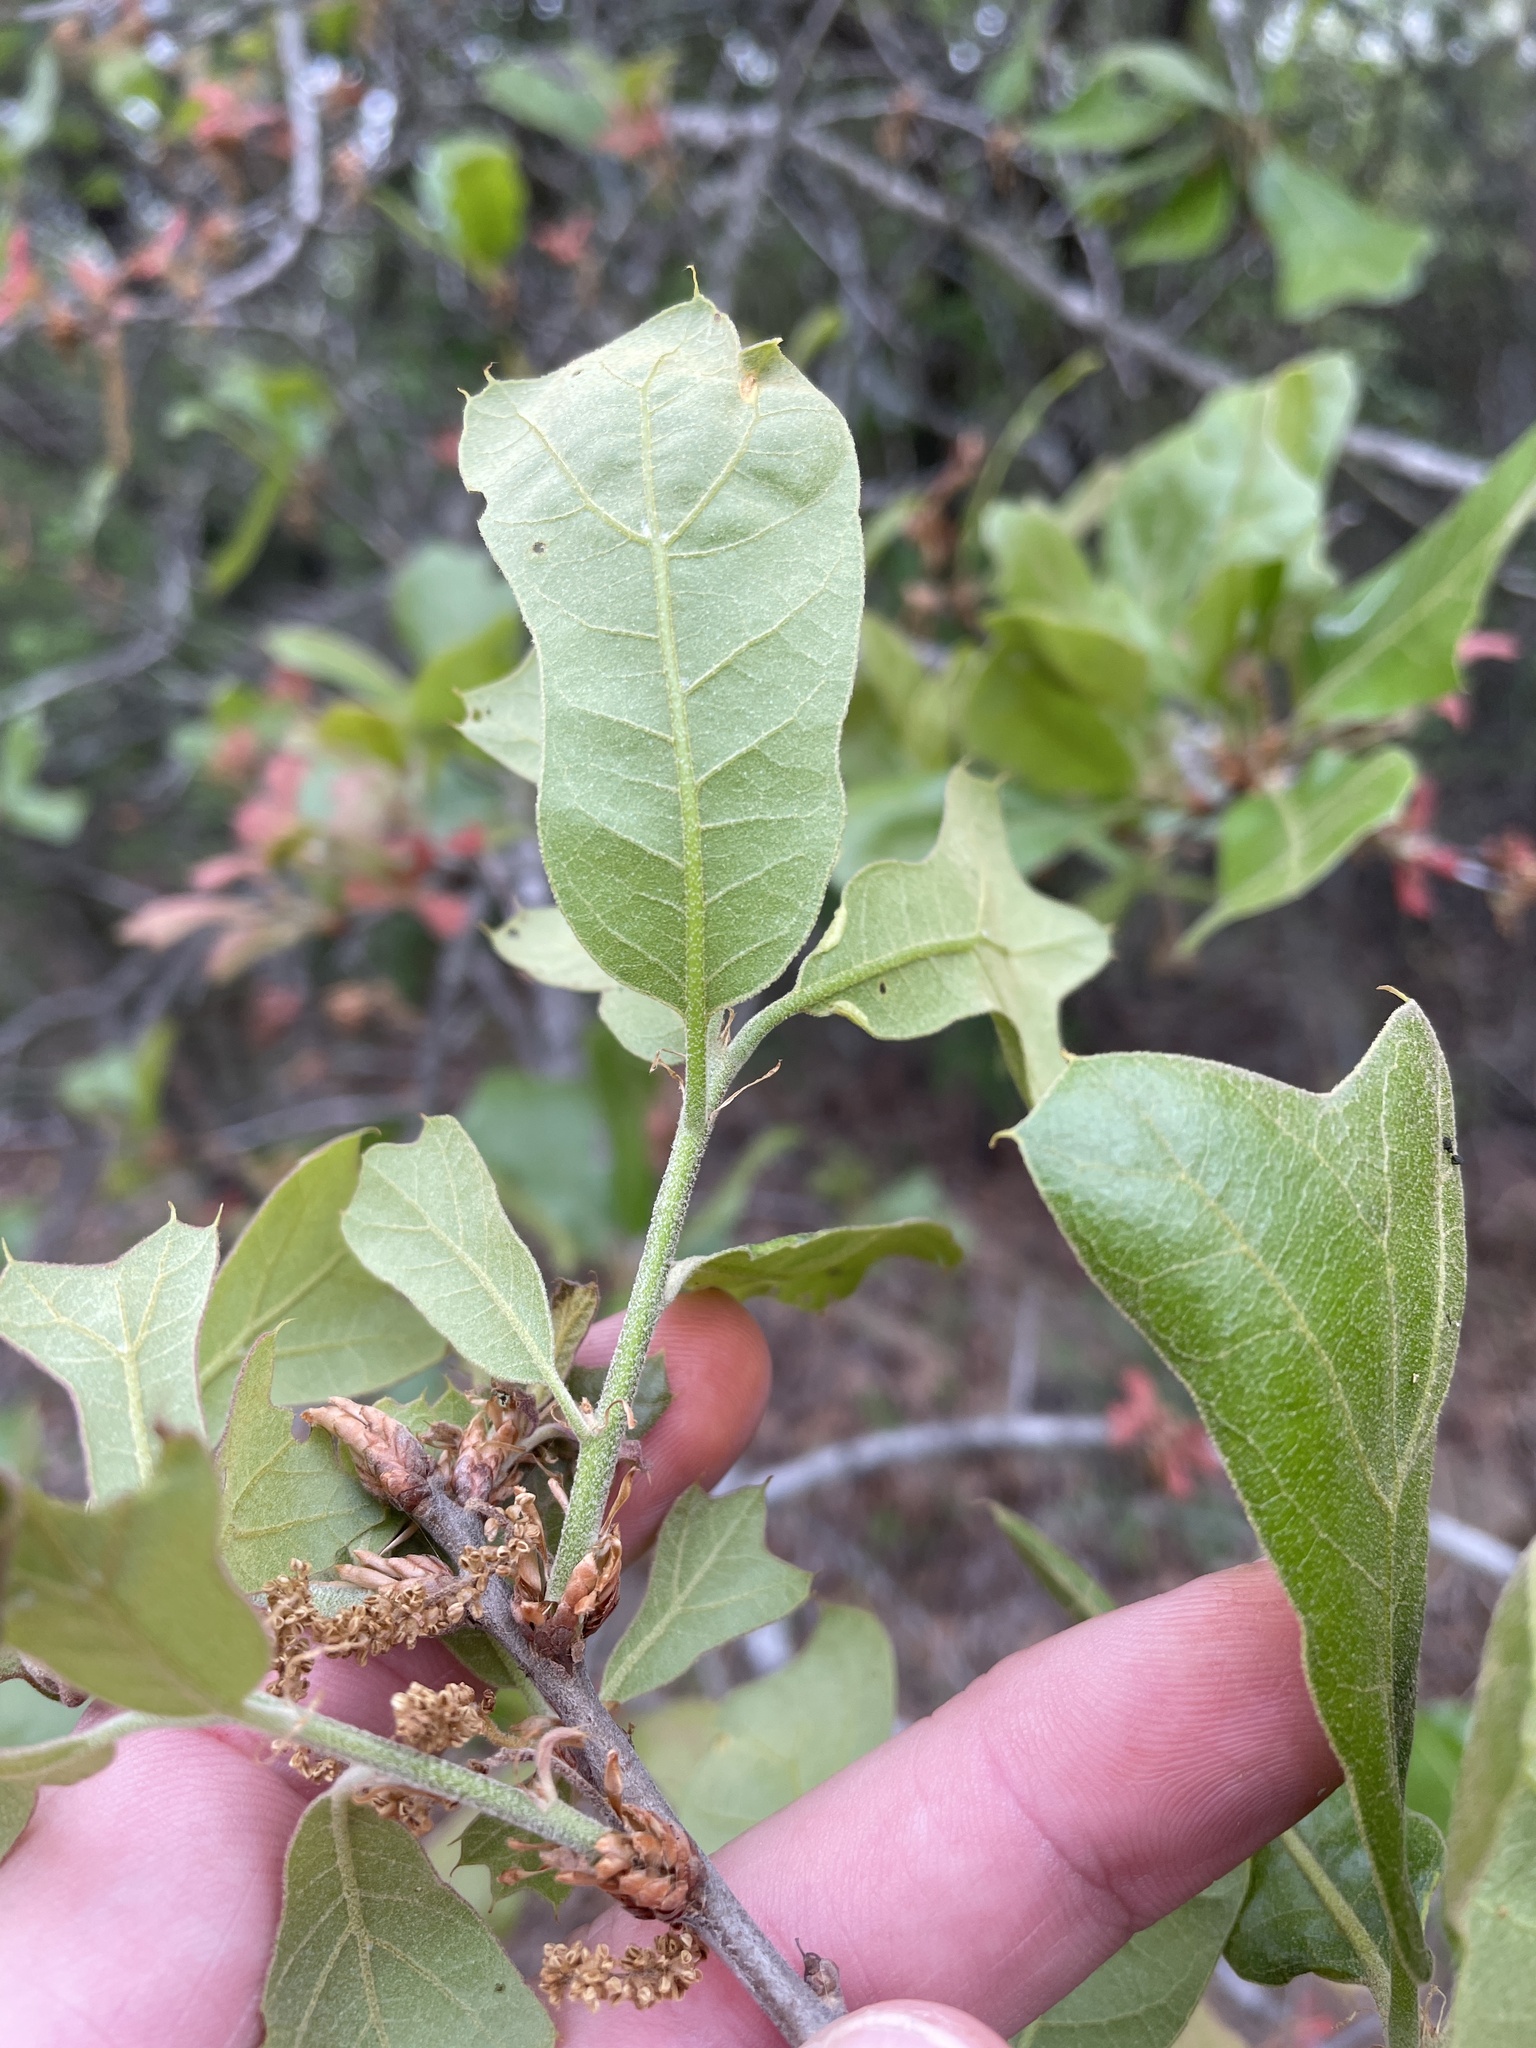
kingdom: Plantae
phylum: Tracheophyta
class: Magnoliopsida
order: Fagales
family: Fagaceae
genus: Quercus
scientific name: Quercus marilandica
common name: Blackjack oak
